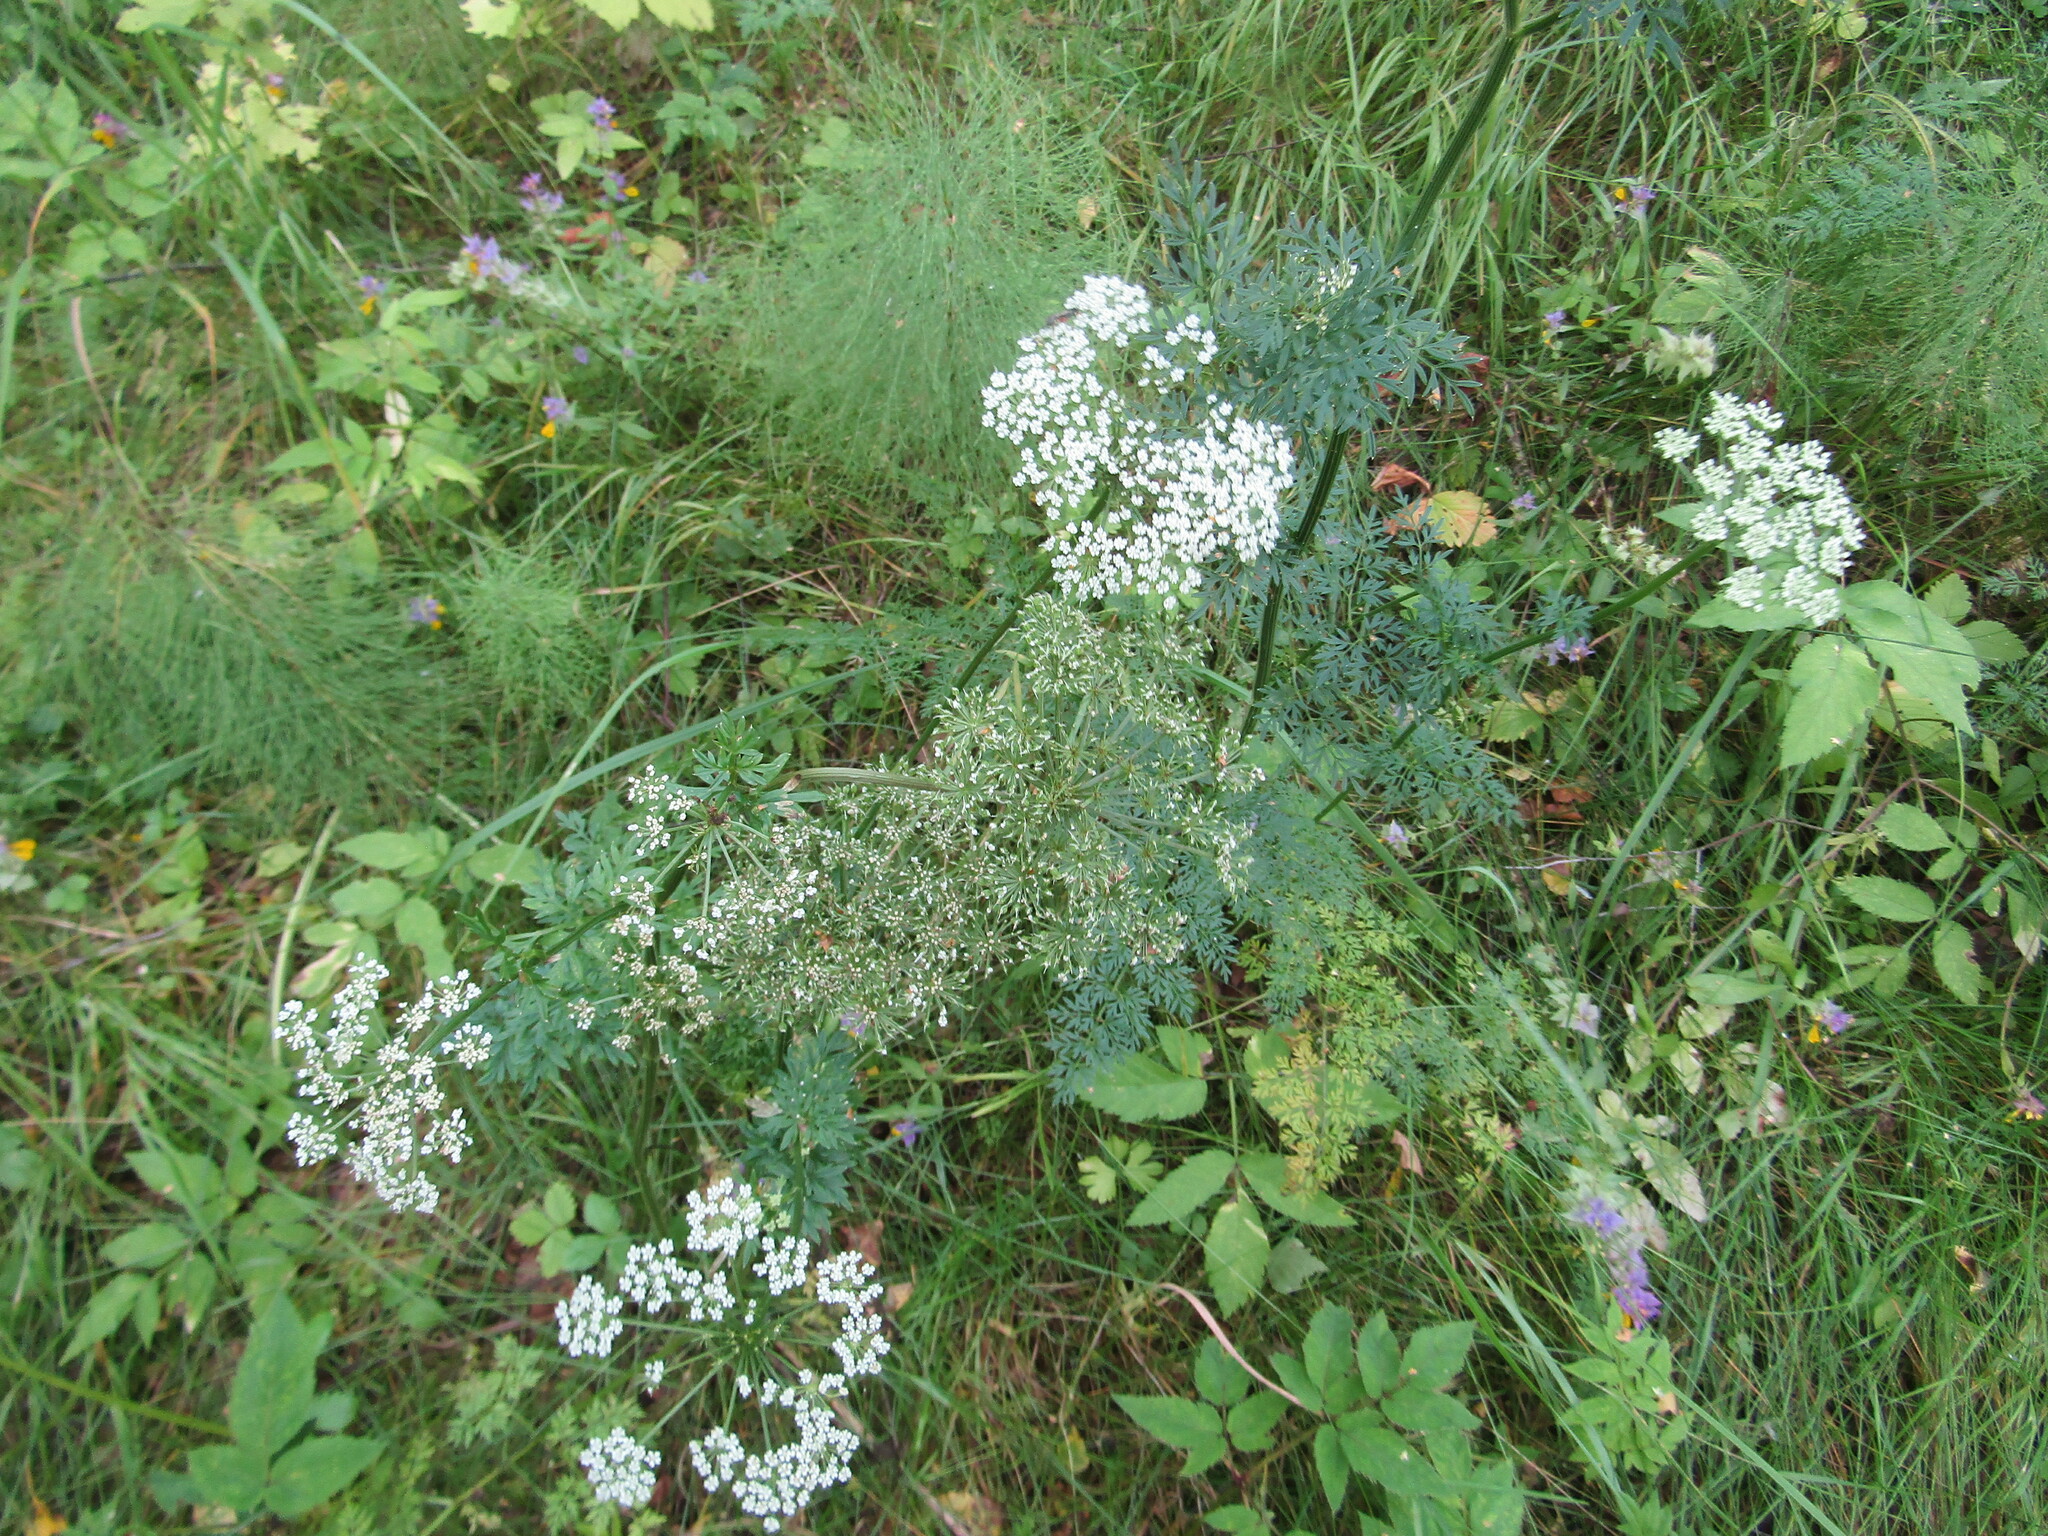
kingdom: Plantae
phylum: Tracheophyta
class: Magnoliopsida
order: Apiales
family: Apiaceae
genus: Selinum
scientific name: Selinum carvifolia
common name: Cambridge milk-parsley
